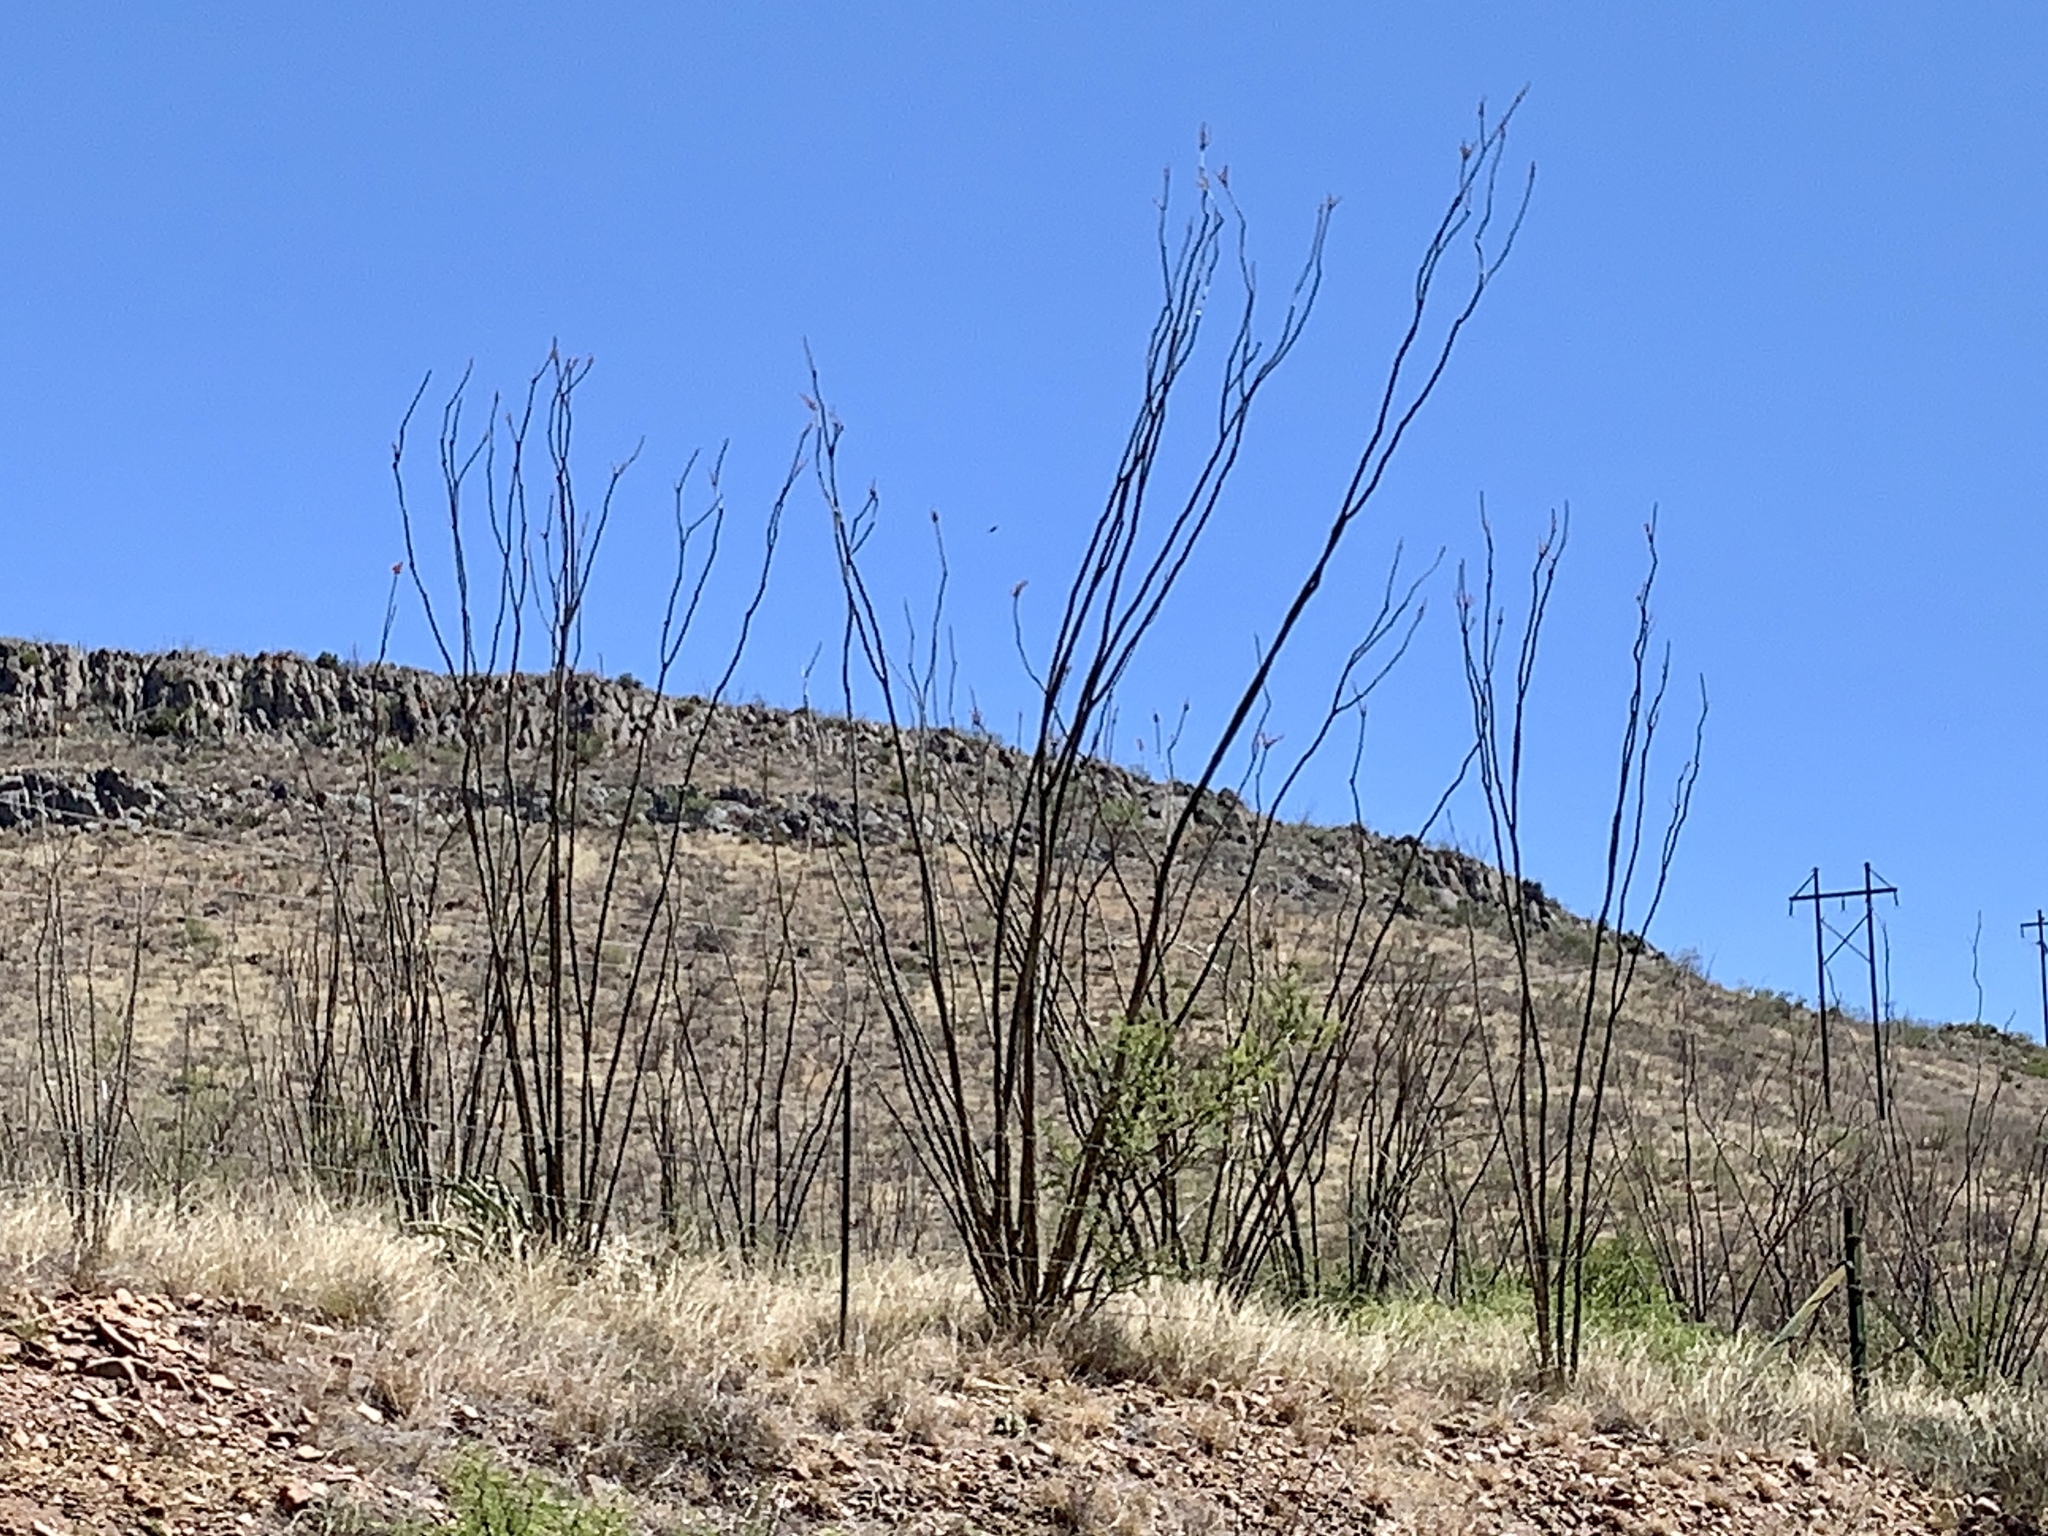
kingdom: Plantae
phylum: Tracheophyta
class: Magnoliopsida
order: Ericales
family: Fouquieriaceae
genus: Fouquieria
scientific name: Fouquieria splendens
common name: Vine-cactus
